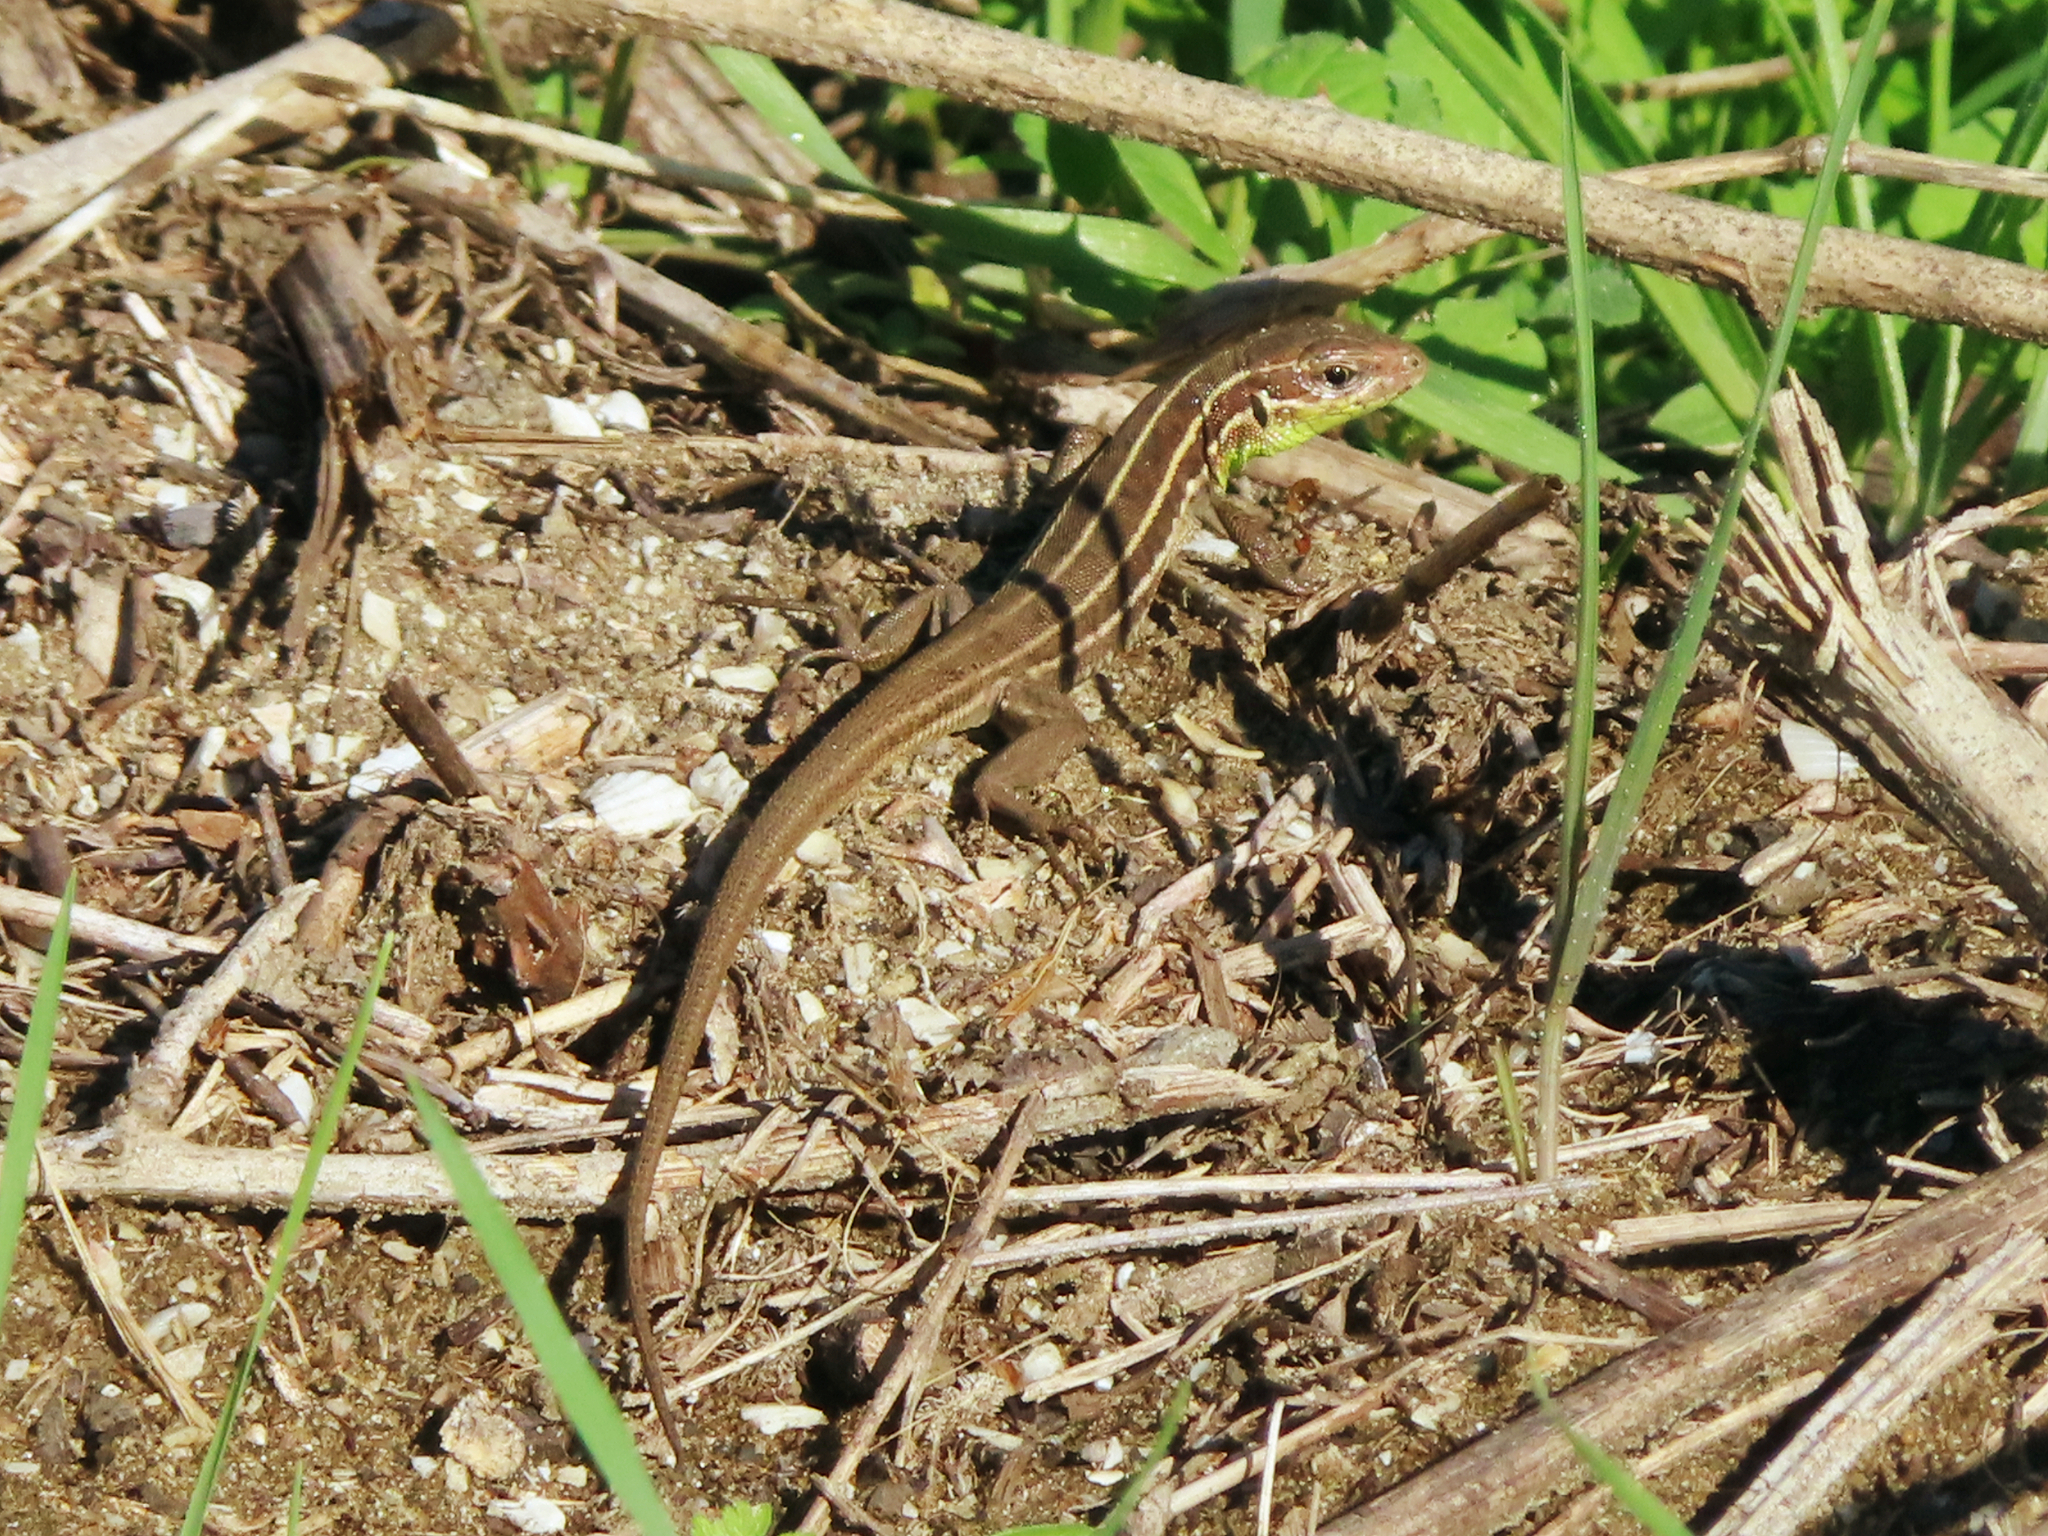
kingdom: Animalia
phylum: Chordata
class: Squamata
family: Lacertidae
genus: Lacerta
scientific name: Lacerta strigata
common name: Caspian green lizard
